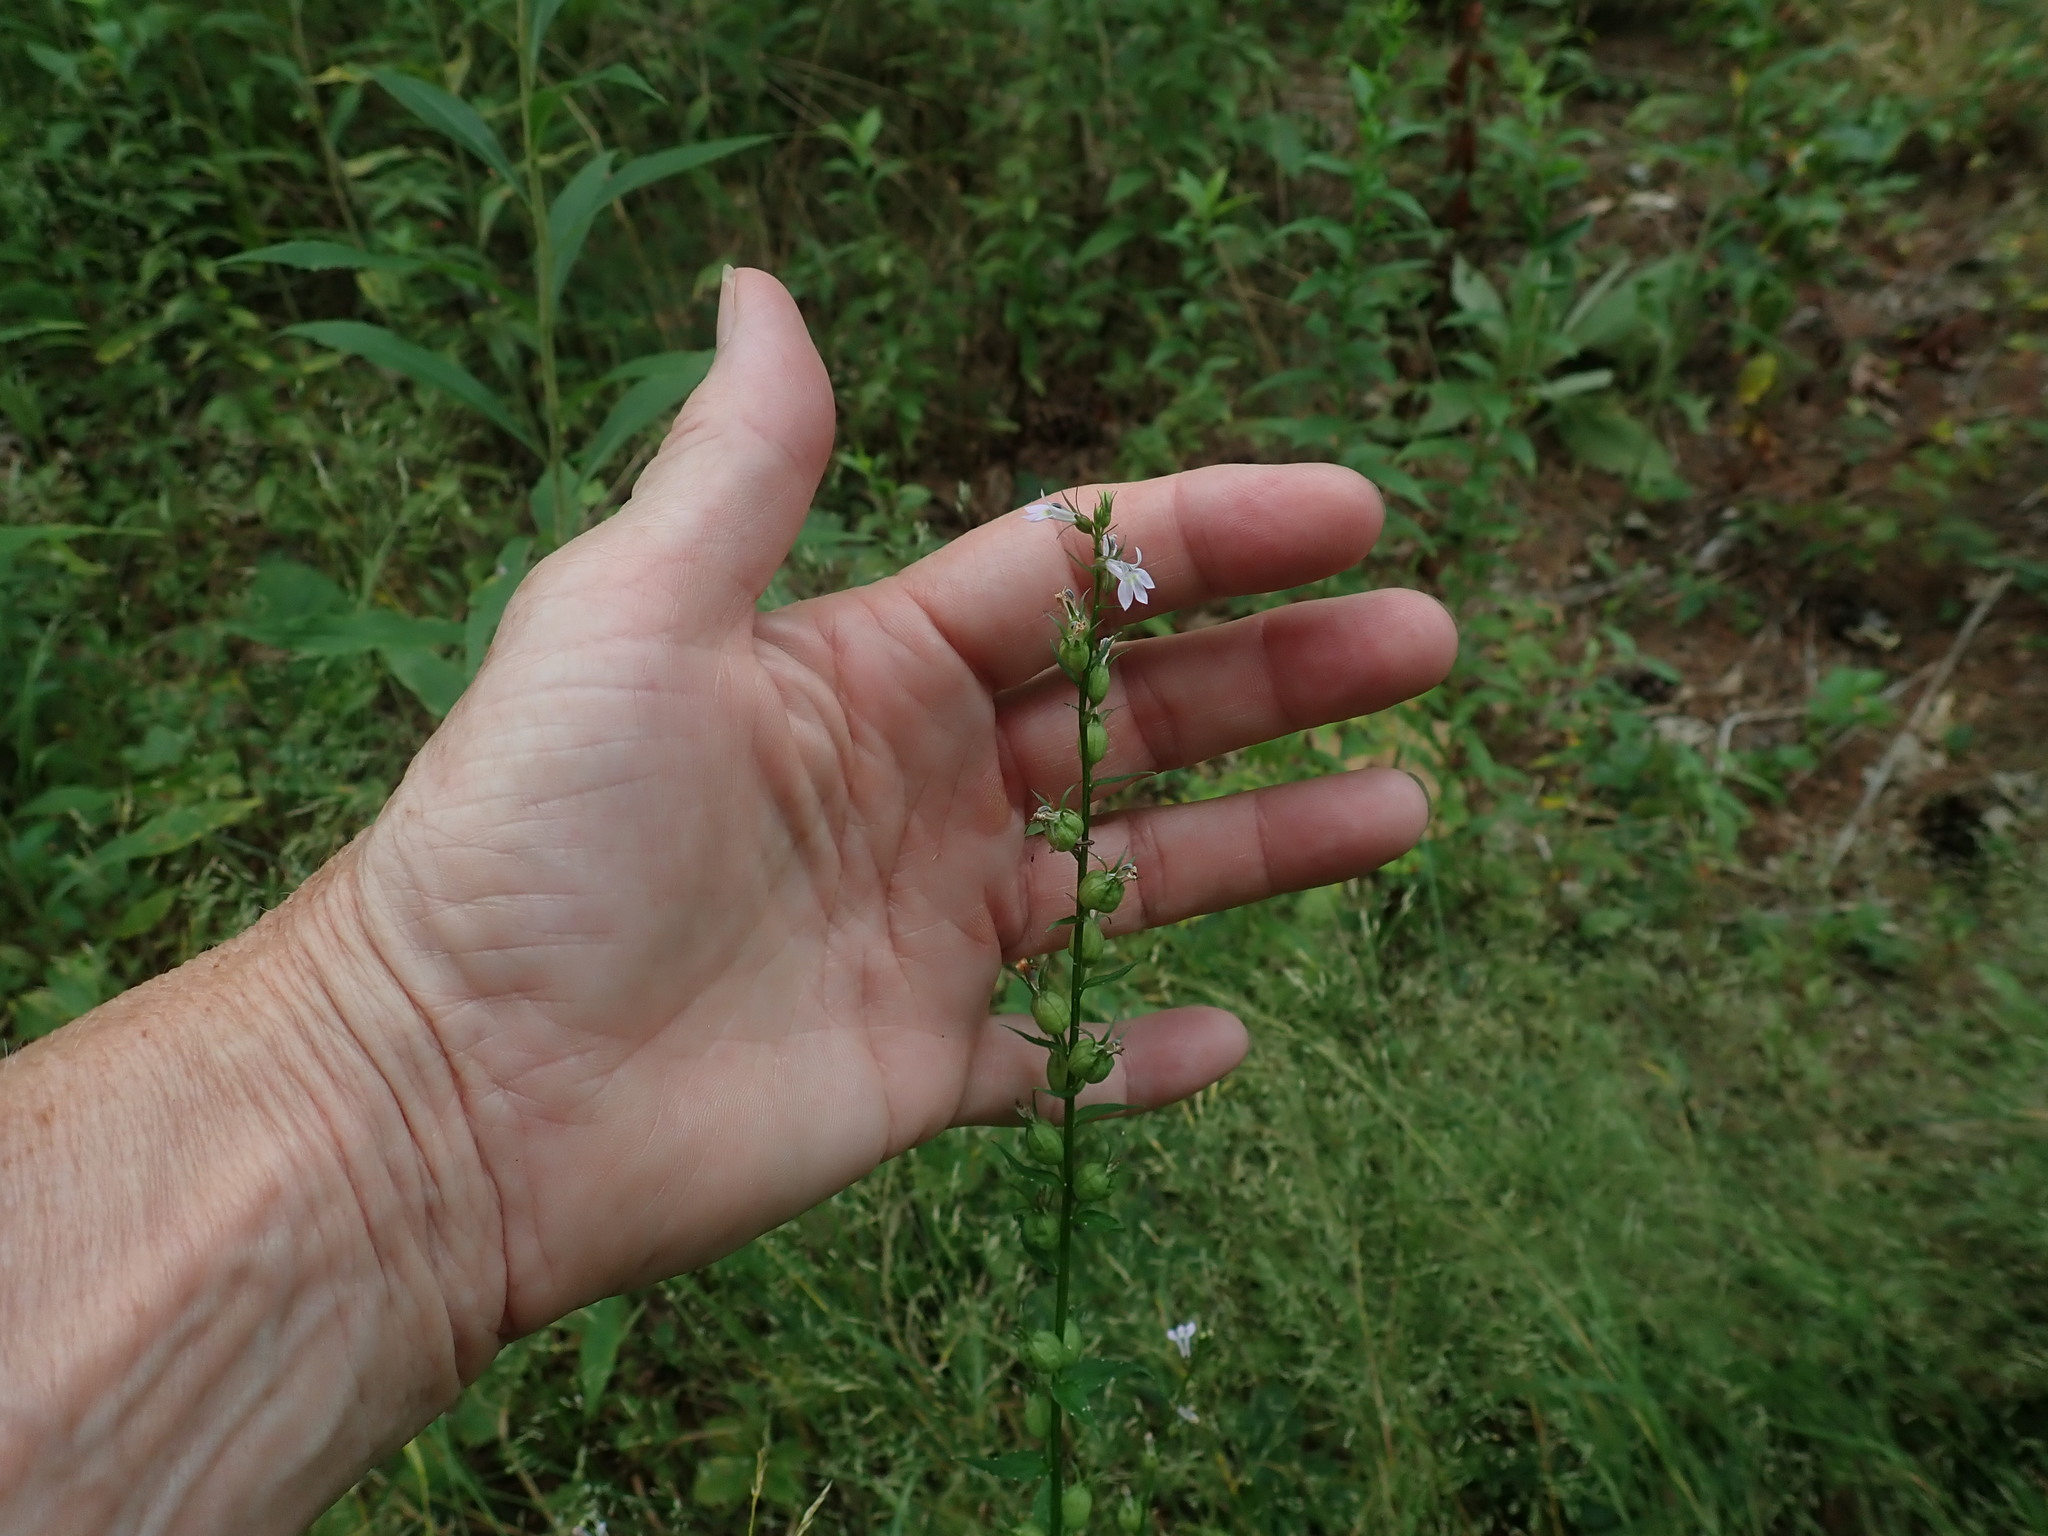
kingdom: Plantae
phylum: Tracheophyta
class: Magnoliopsida
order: Asterales
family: Campanulaceae
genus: Lobelia
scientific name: Lobelia inflata
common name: Indian tobacco
